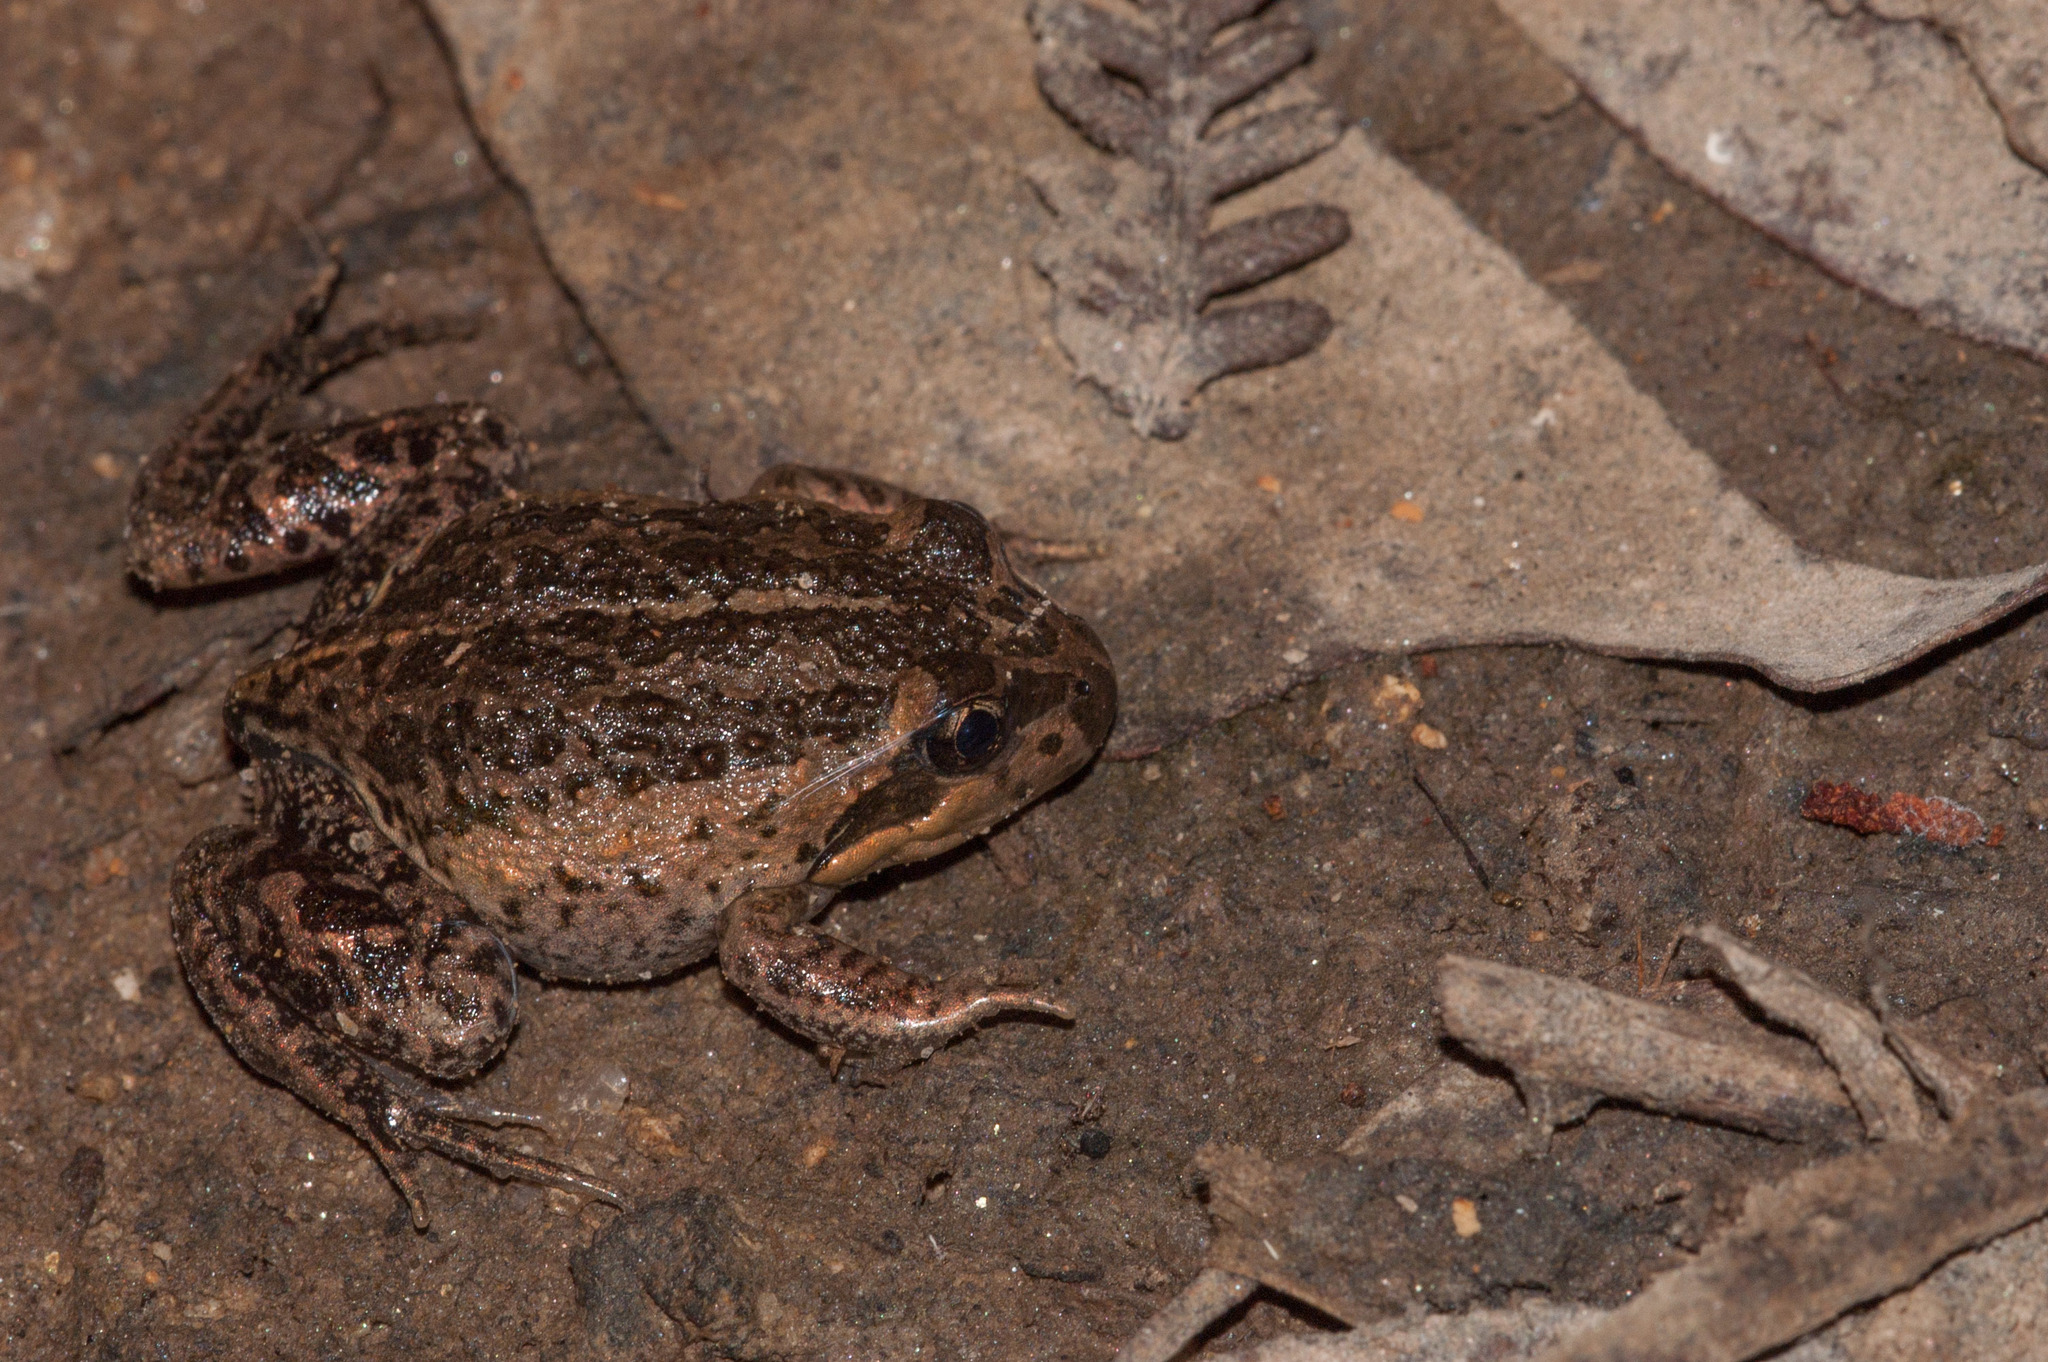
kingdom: Animalia
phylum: Chordata
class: Amphibia
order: Anura
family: Limnodynastidae
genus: Limnodynastes
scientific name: Limnodynastes dumerilii
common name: Banjo frog
